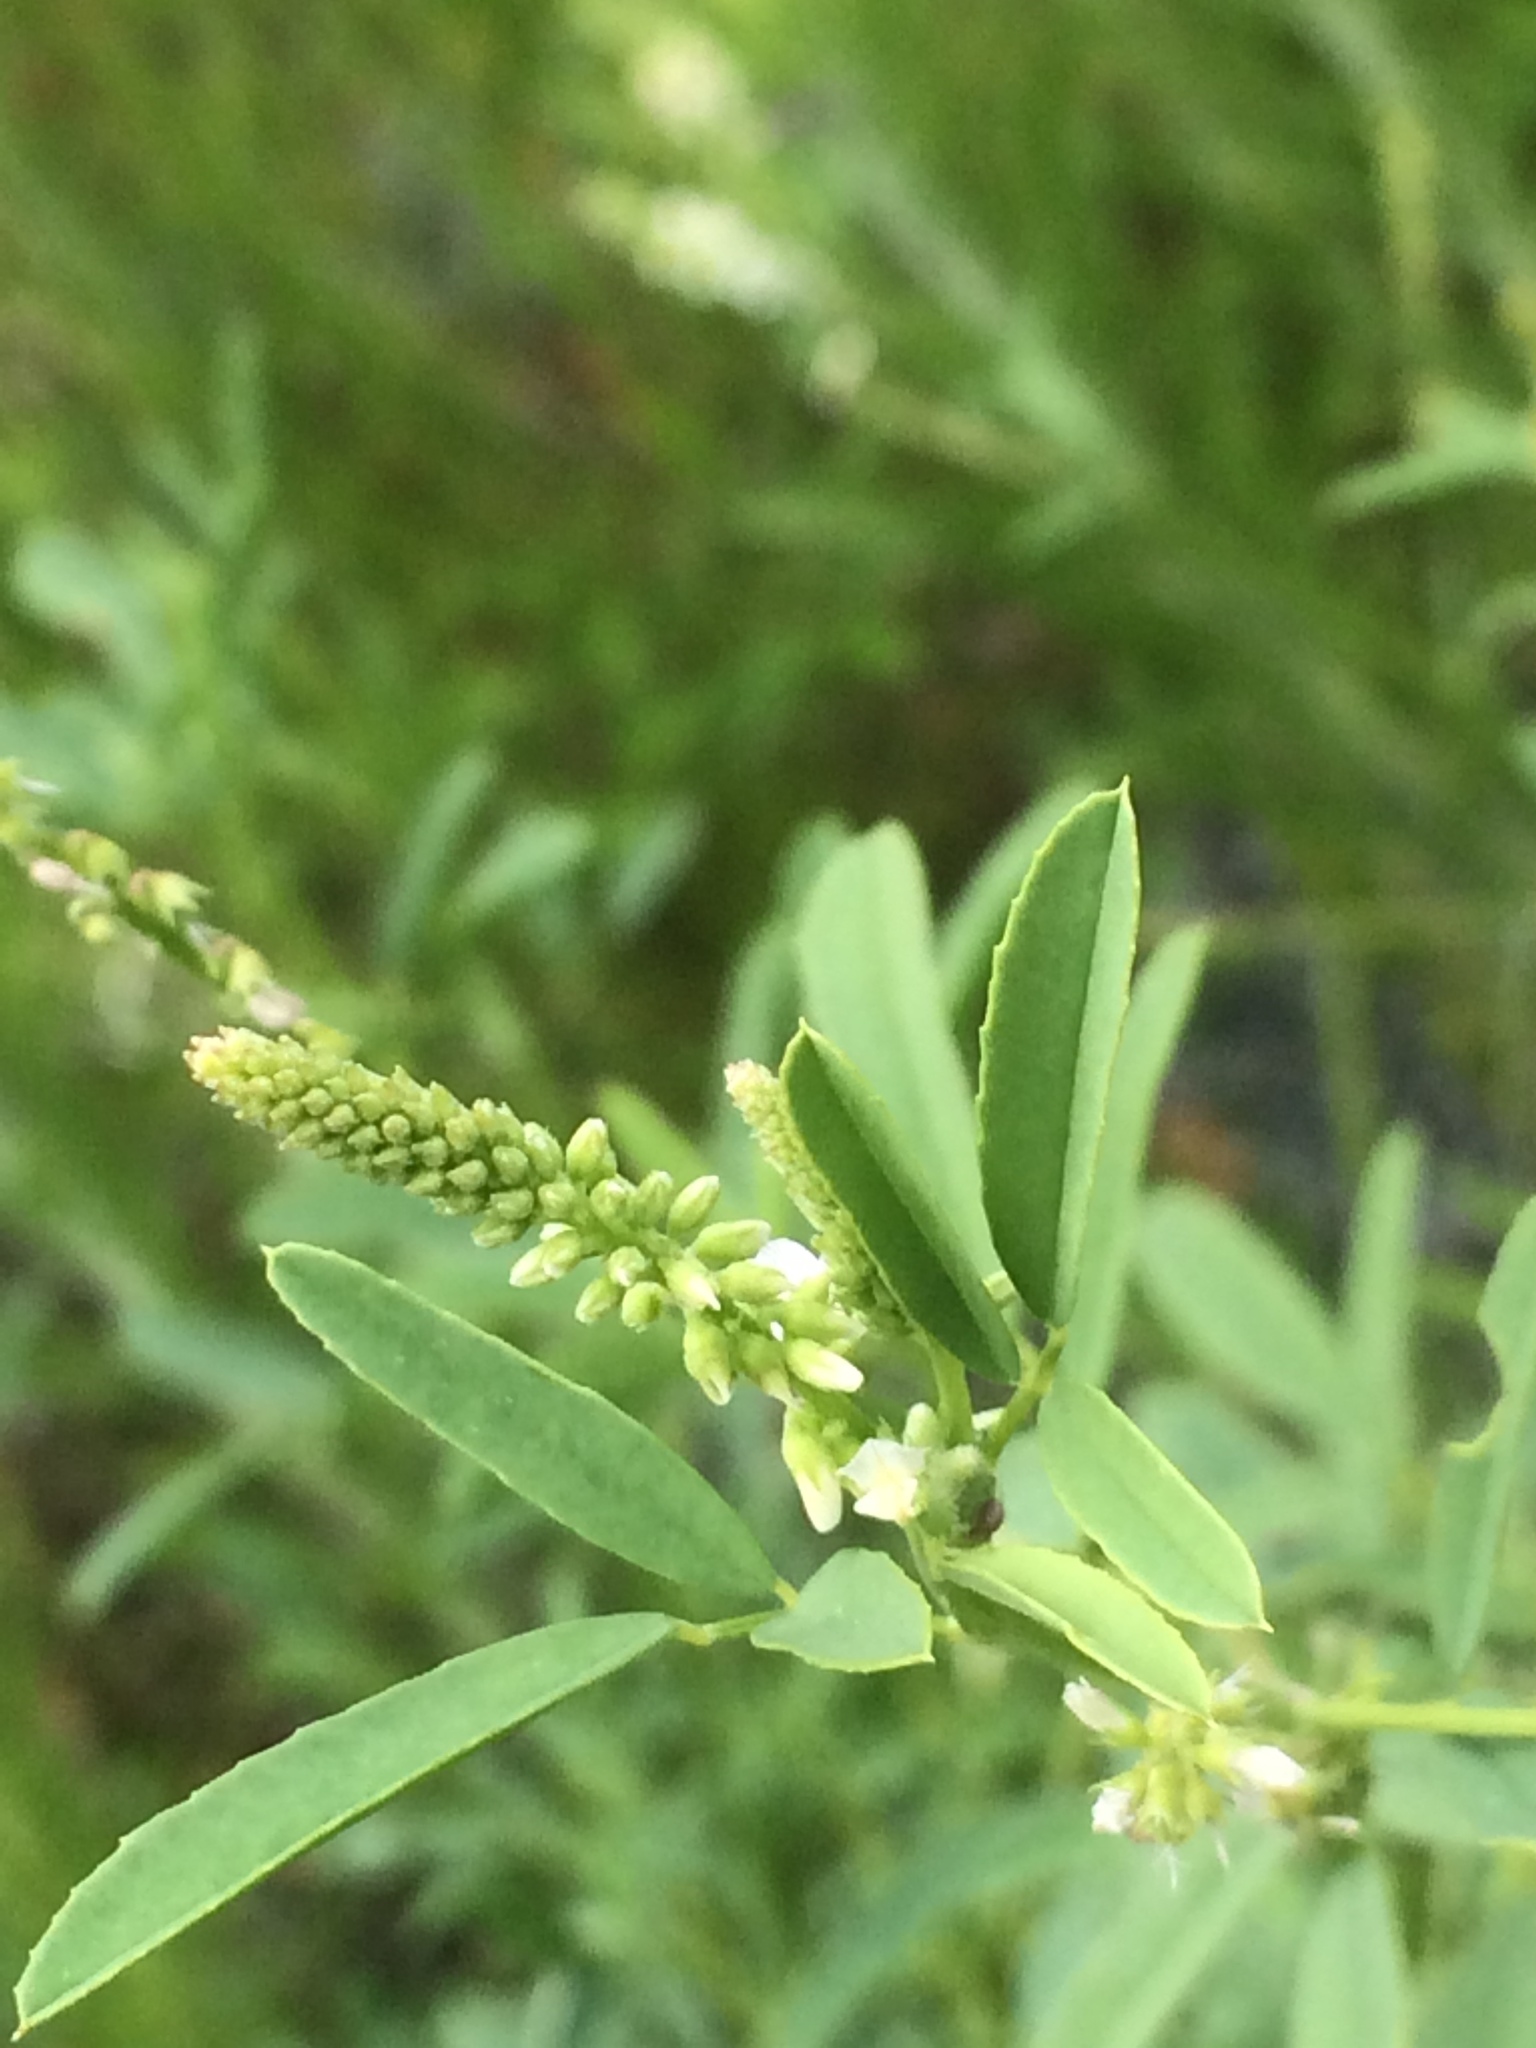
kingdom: Plantae
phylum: Tracheophyta
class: Magnoliopsida
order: Fabales
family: Fabaceae
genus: Melilotus
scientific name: Melilotus albus
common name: White melilot
